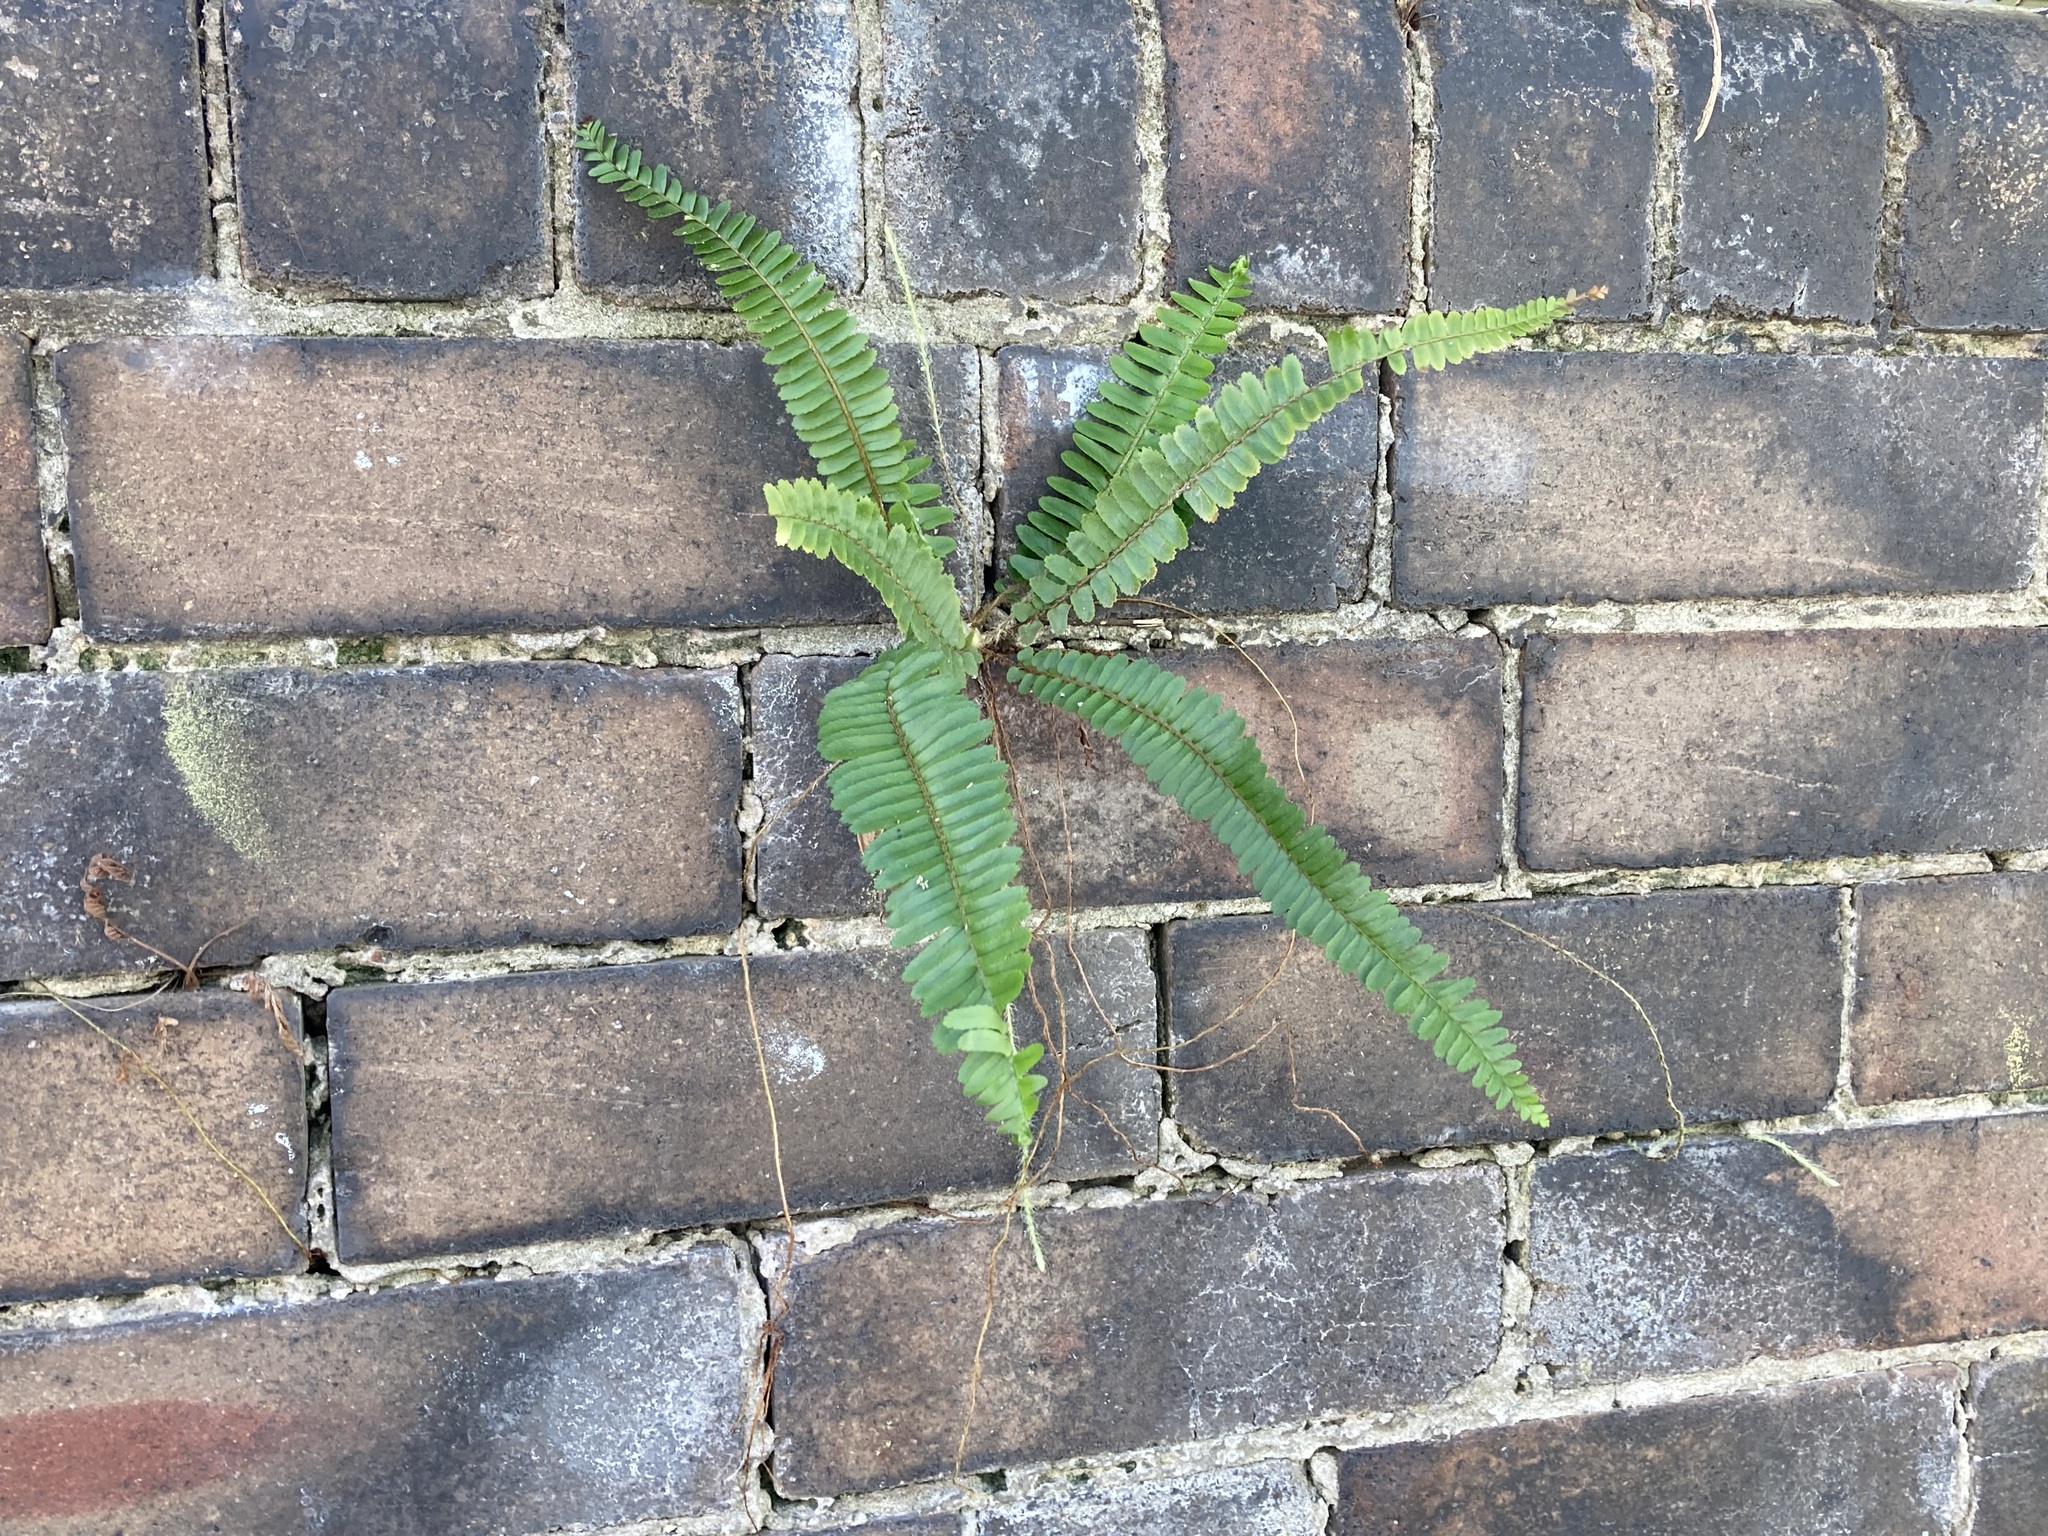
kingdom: Plantae
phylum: Tracheophyta
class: Polypodiopsida
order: Polypodiales
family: Nephrolepidaceae
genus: Nephrolepis
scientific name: Nephrolepis cordifolia
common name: Narrow swordfern
